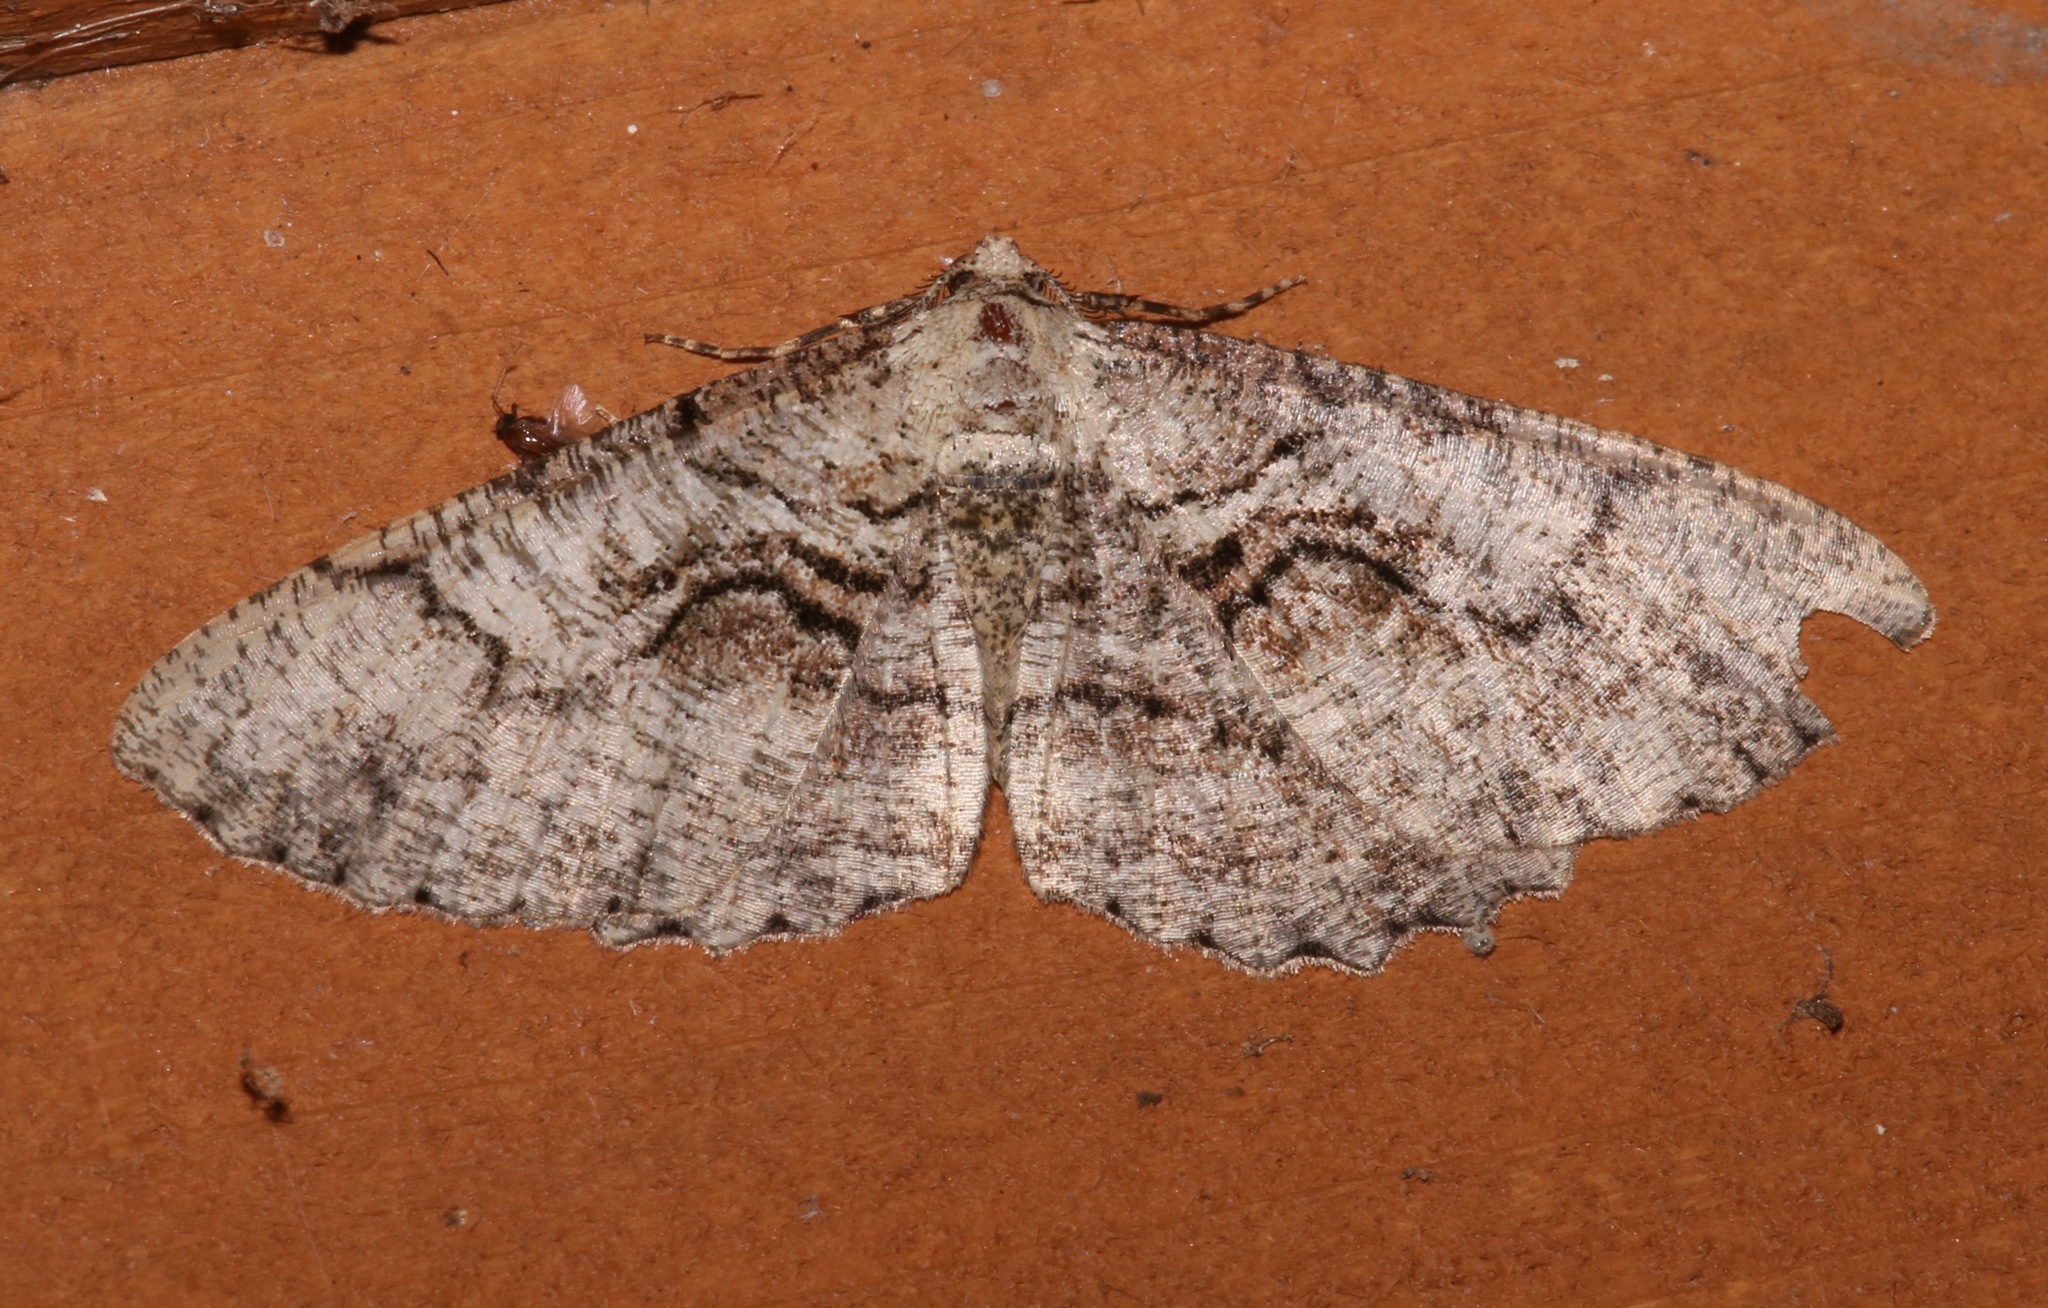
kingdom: Animalia
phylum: Arthropoda
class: Insecta
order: Lepidoptera
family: Geometridae
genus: Cymatophora
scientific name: Cymatophora approximaria
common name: Giant gray moth
